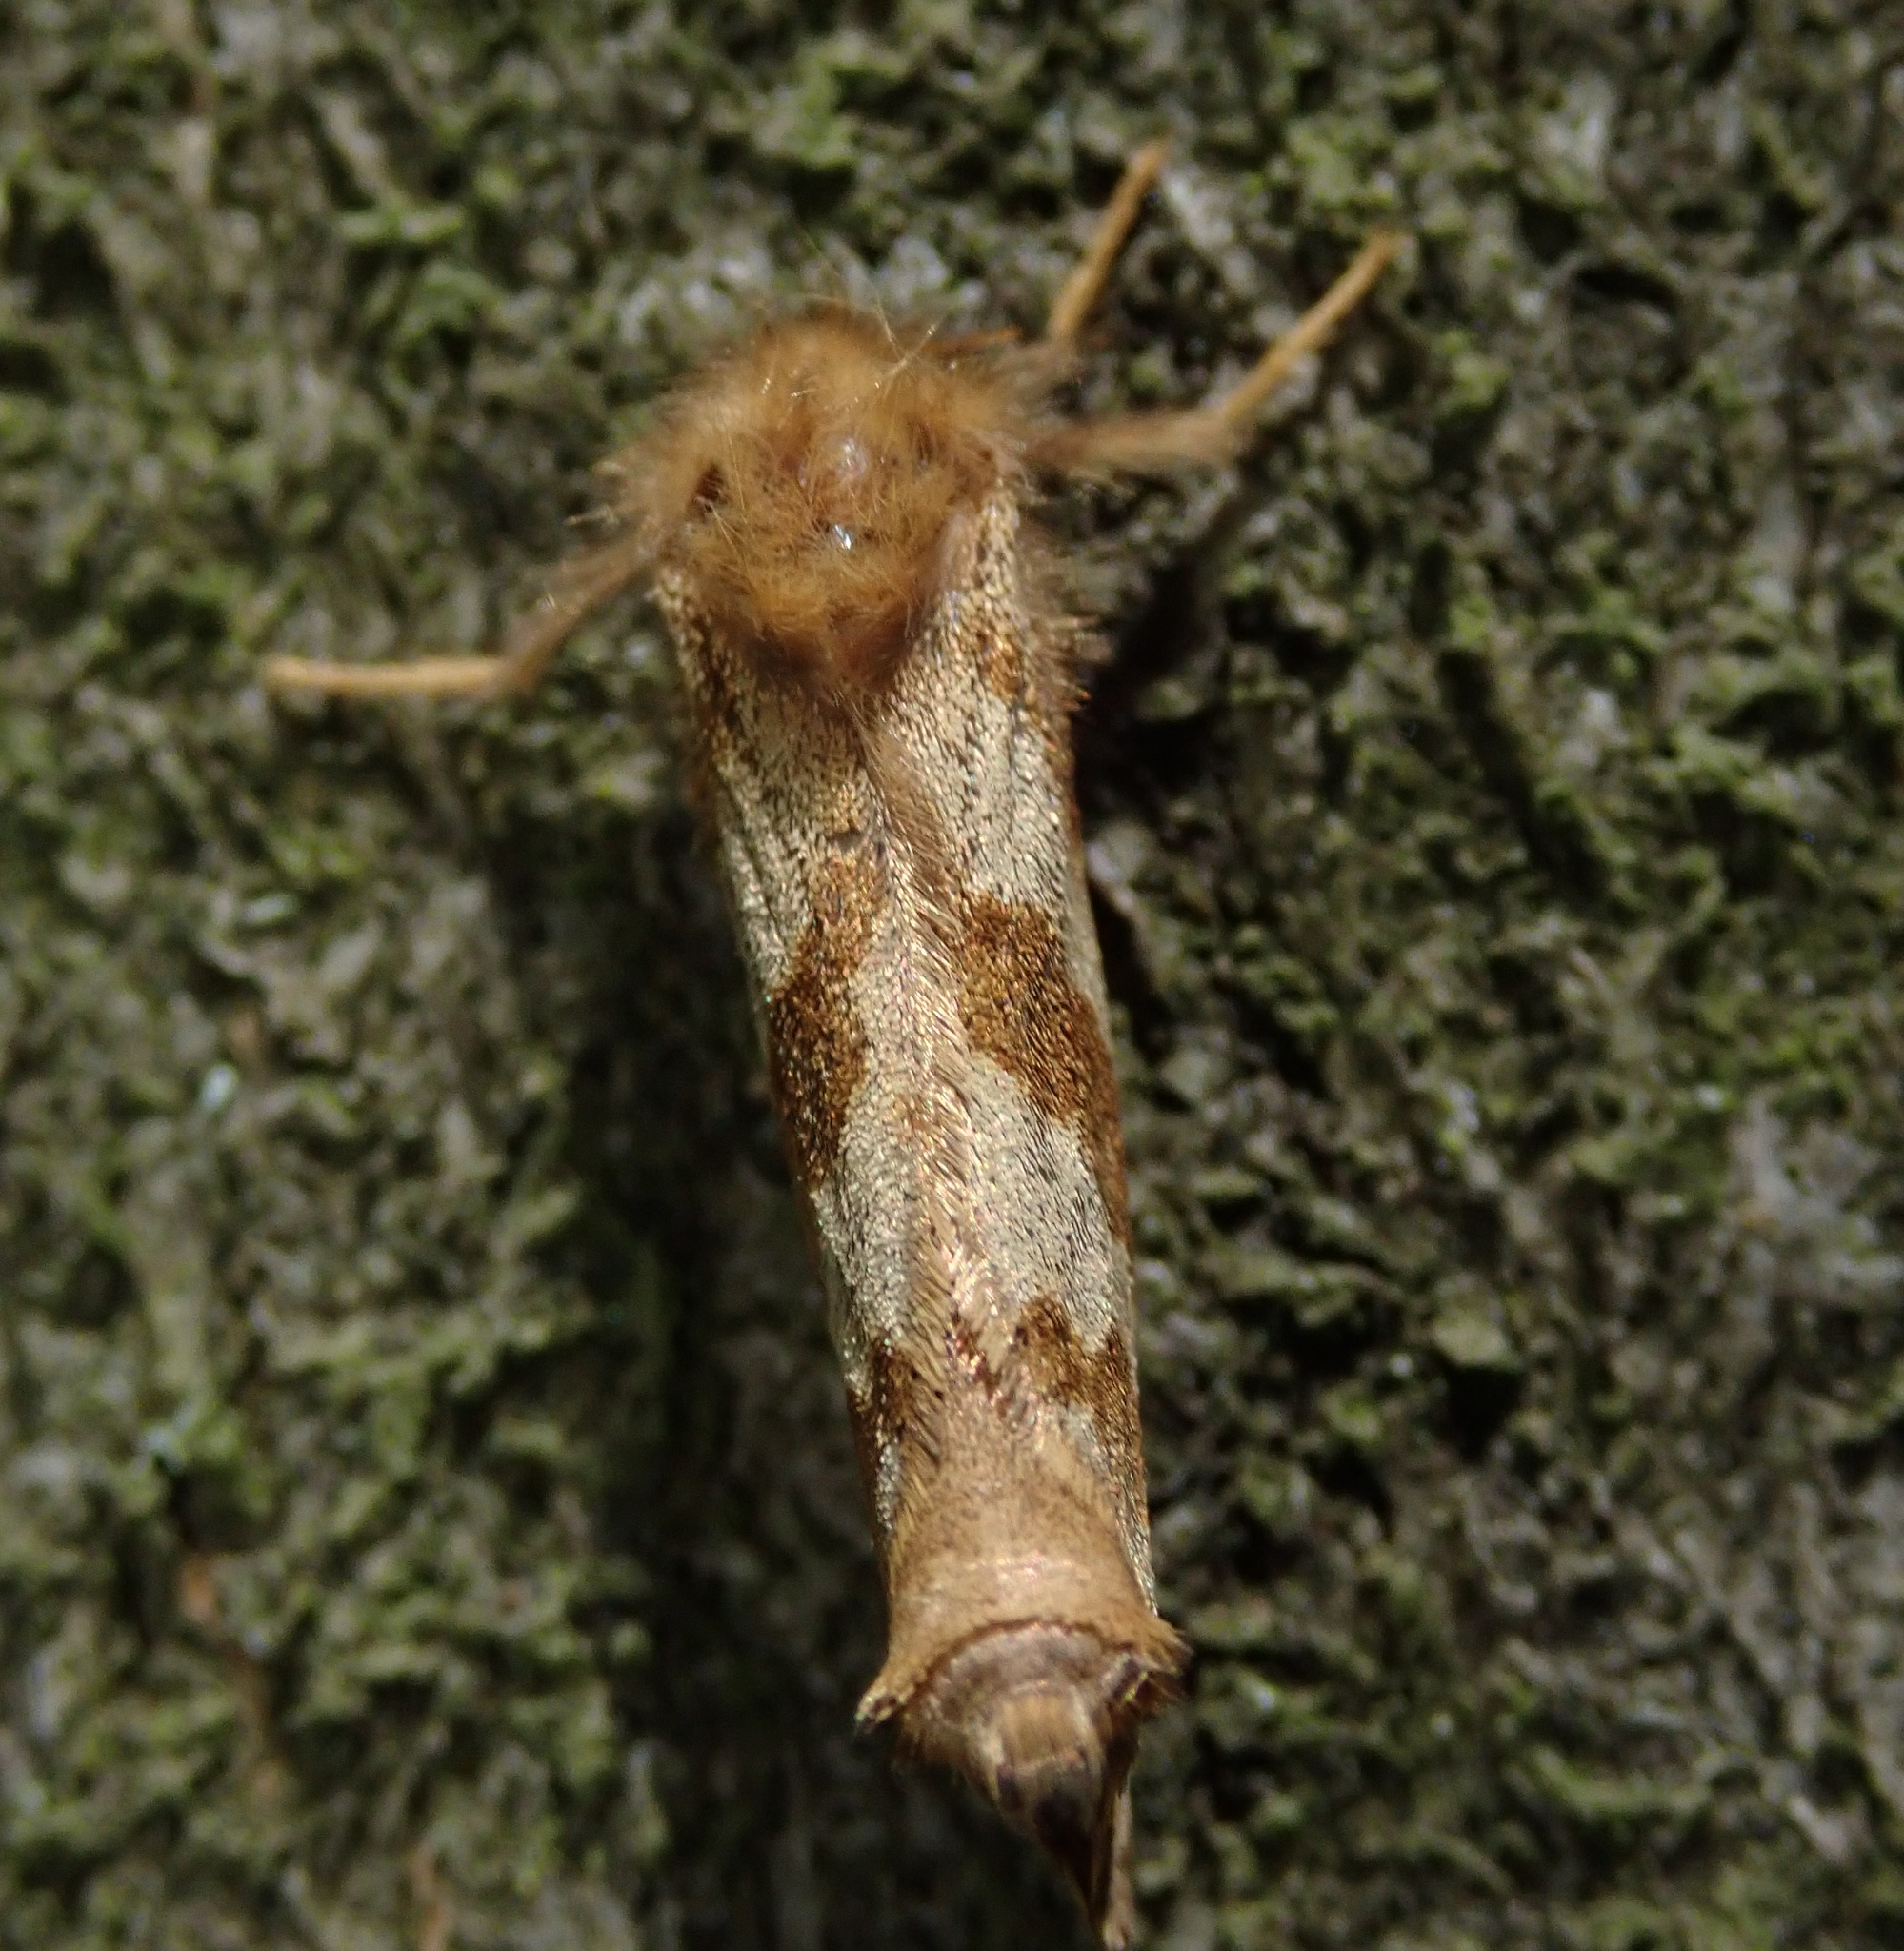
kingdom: Animalia
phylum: Arthropoda
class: Insecta
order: Lepidoptera
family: Hepialidae
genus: Phymatopus
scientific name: Phymatopus hecta
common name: Gold swift
